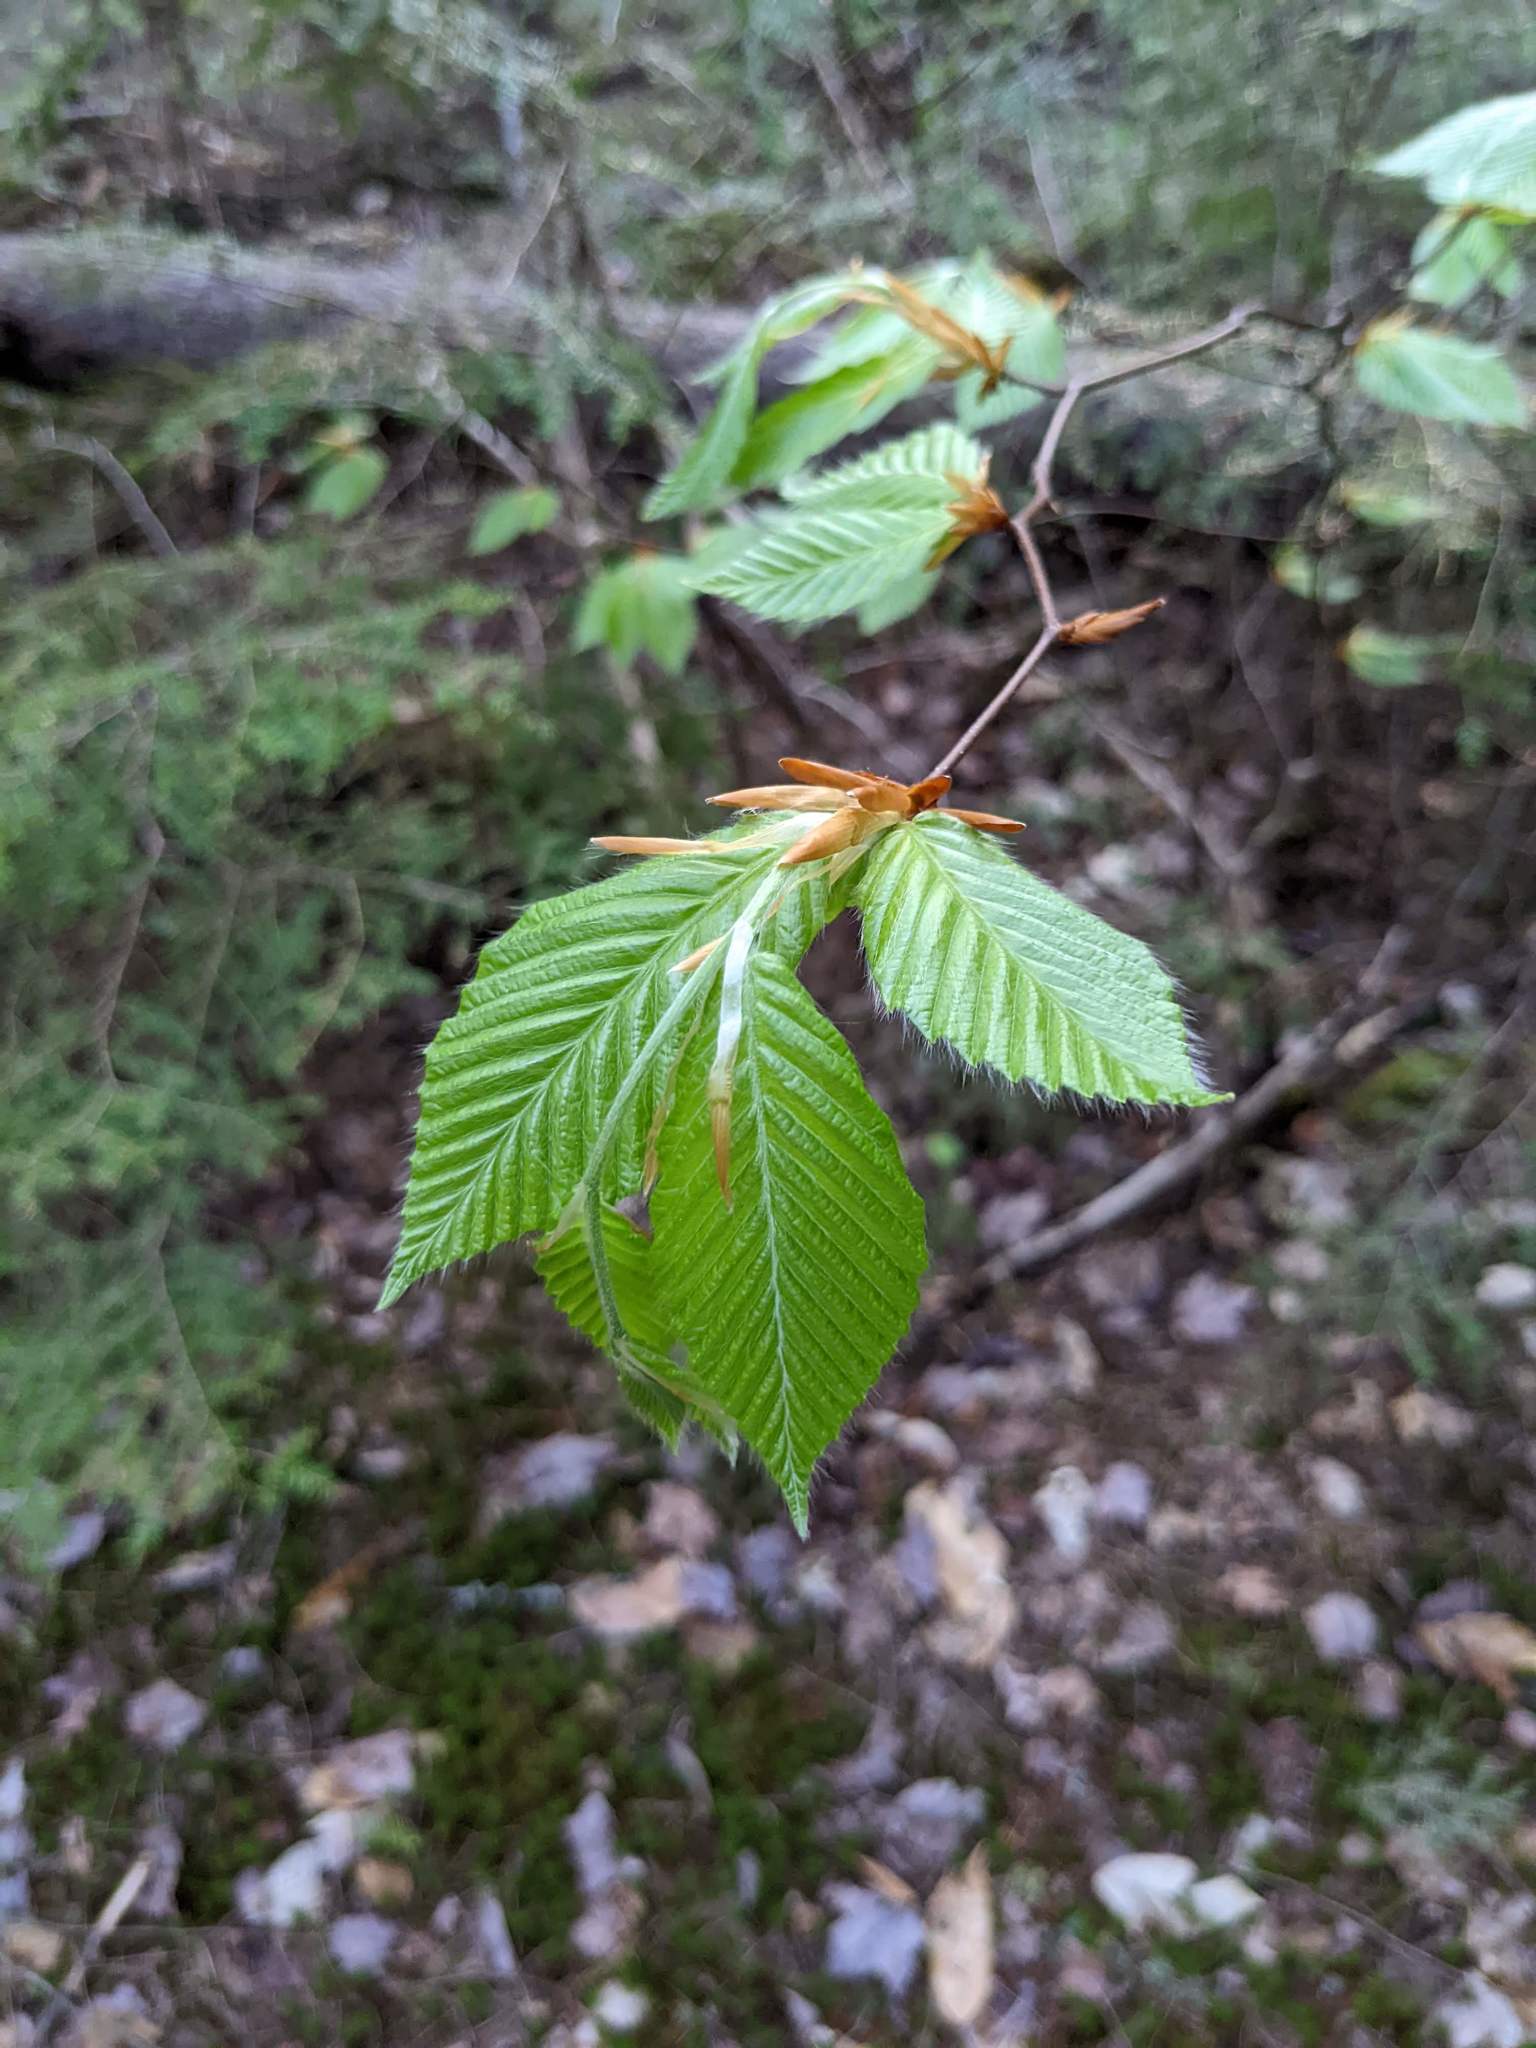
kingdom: Plantae
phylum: Tracheophyta
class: Magnoliopsida
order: Fagales
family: Fagaceae
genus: Fagus
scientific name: Fagus grandifolia
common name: American beech
